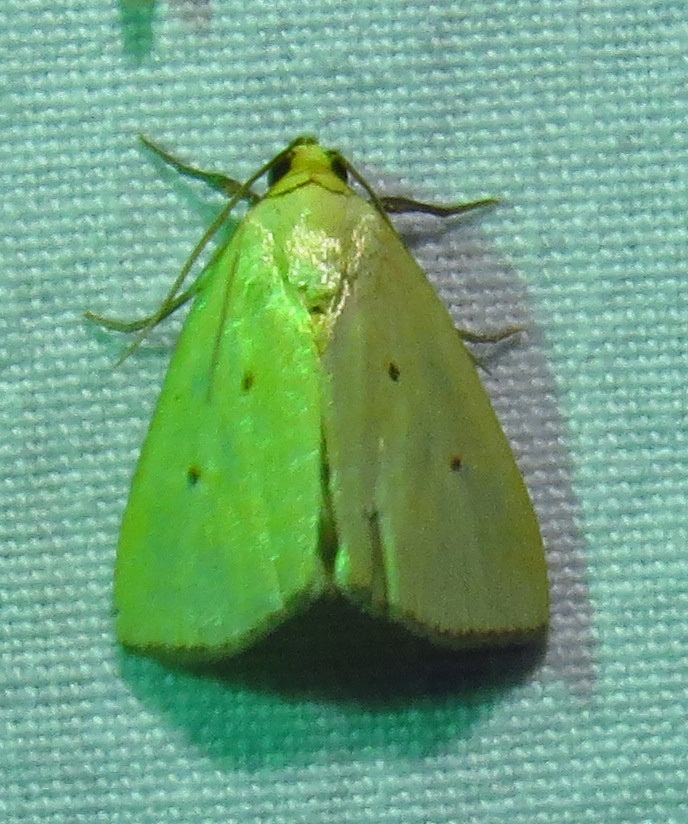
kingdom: Animalia
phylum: Arthropoda
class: Insecta
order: Lepidoptera
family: Noctuidae
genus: Marimatha
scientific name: Marimatha nigrofimbria
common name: Black-bordered lemon moth
